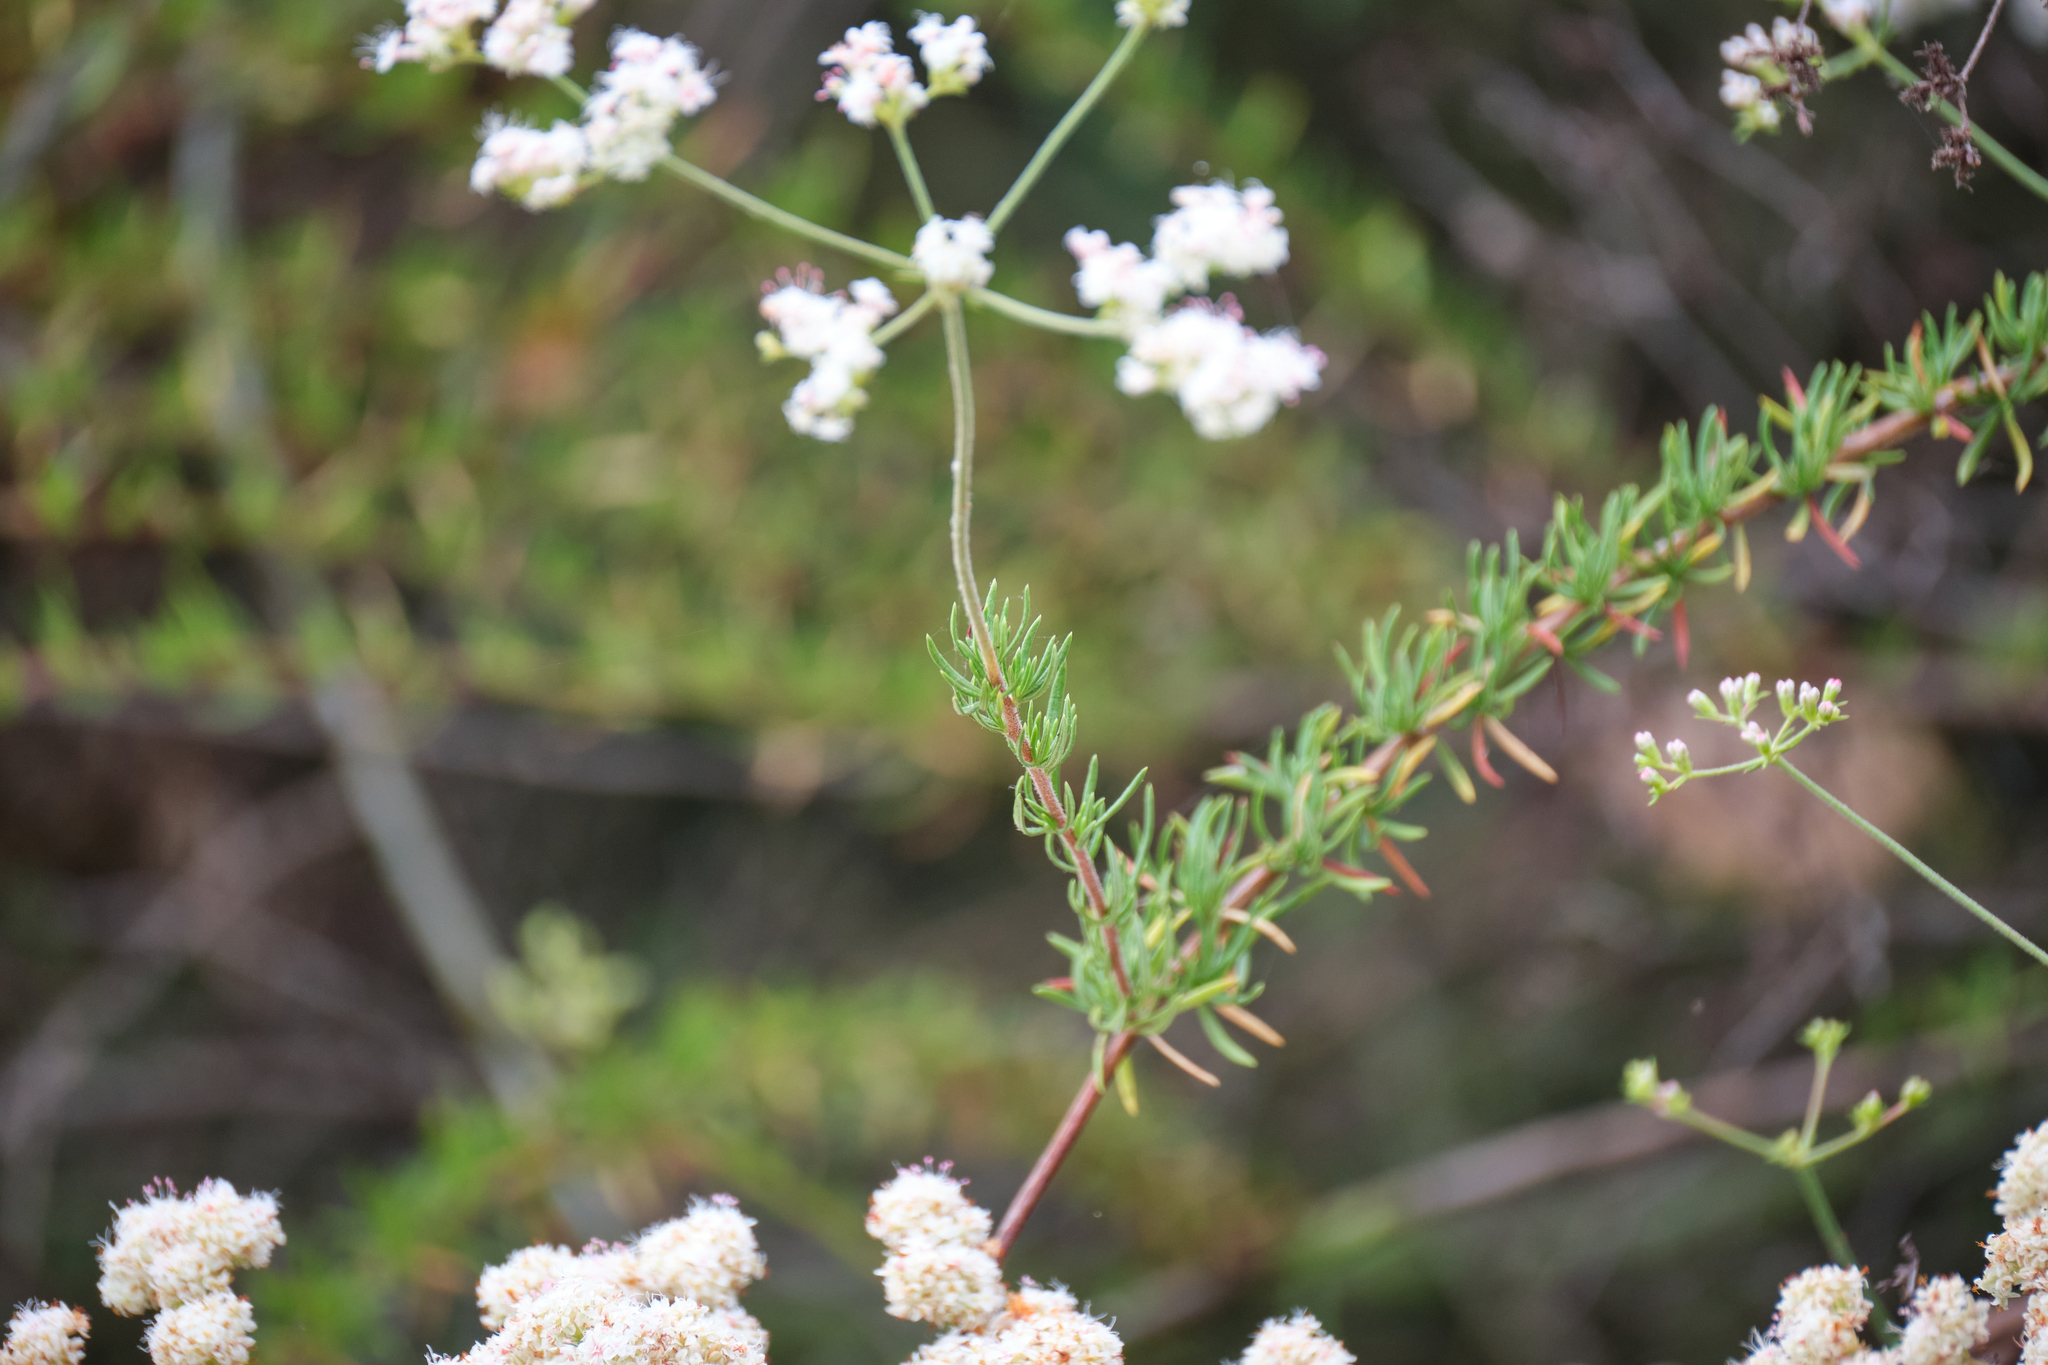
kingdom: Plantae
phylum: Tracheophyta
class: Magnoliopsida
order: Caryophyllales
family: Polygonaceae
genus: Eriogonum
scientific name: Eriogonum fasciculatum
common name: California wild buckwheat
